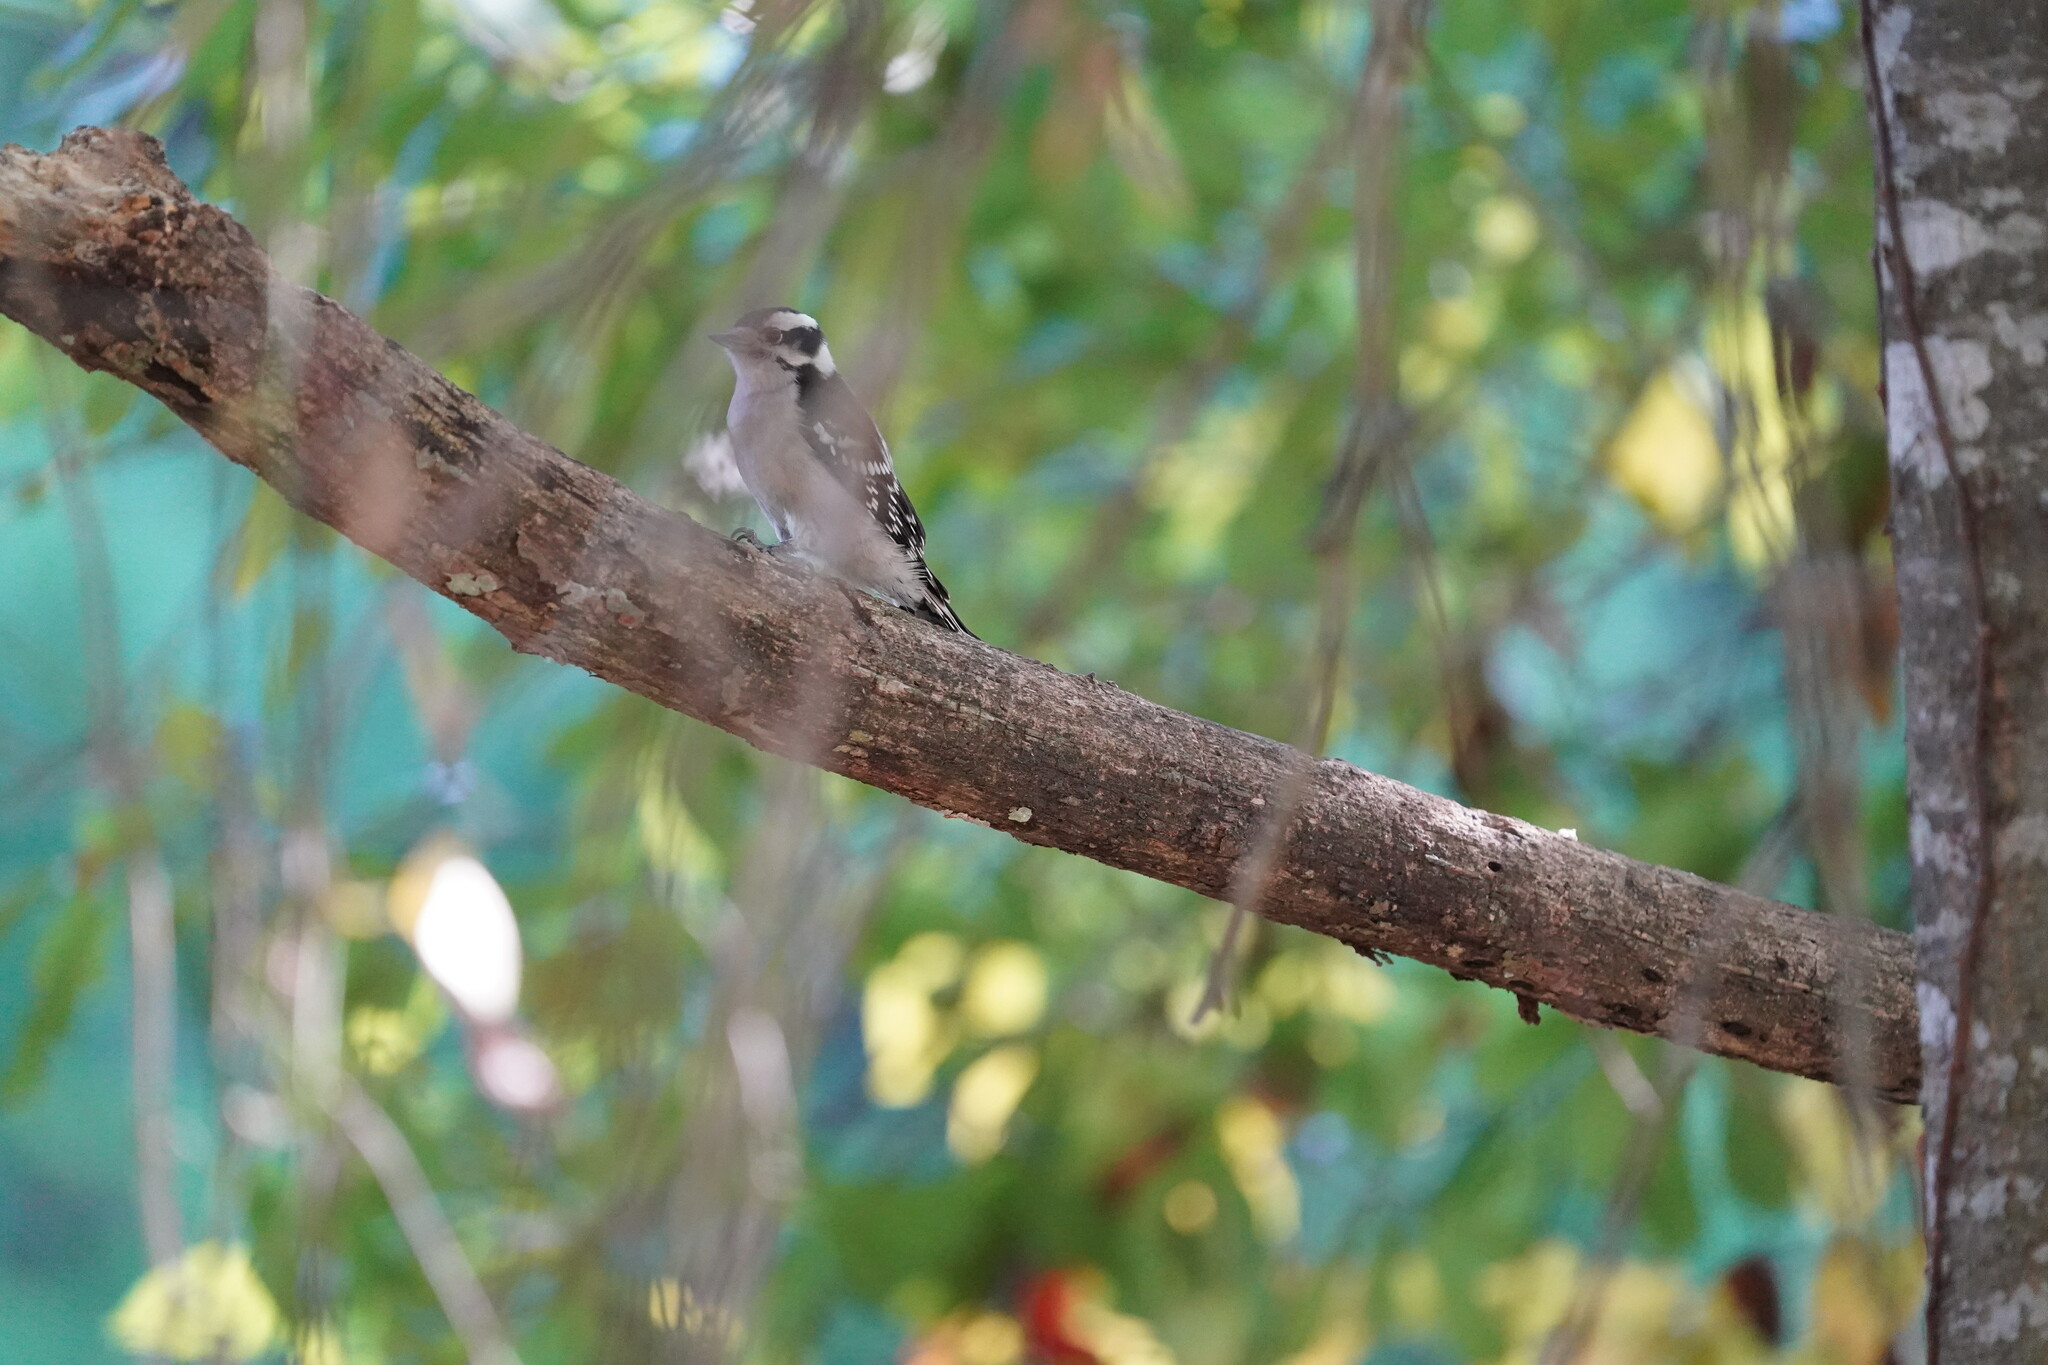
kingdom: Animalia
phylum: Chordata
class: Aves
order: Piciformes
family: Picidae
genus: Dryobates
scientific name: Dryobates pubescens
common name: Downy woodpecker
